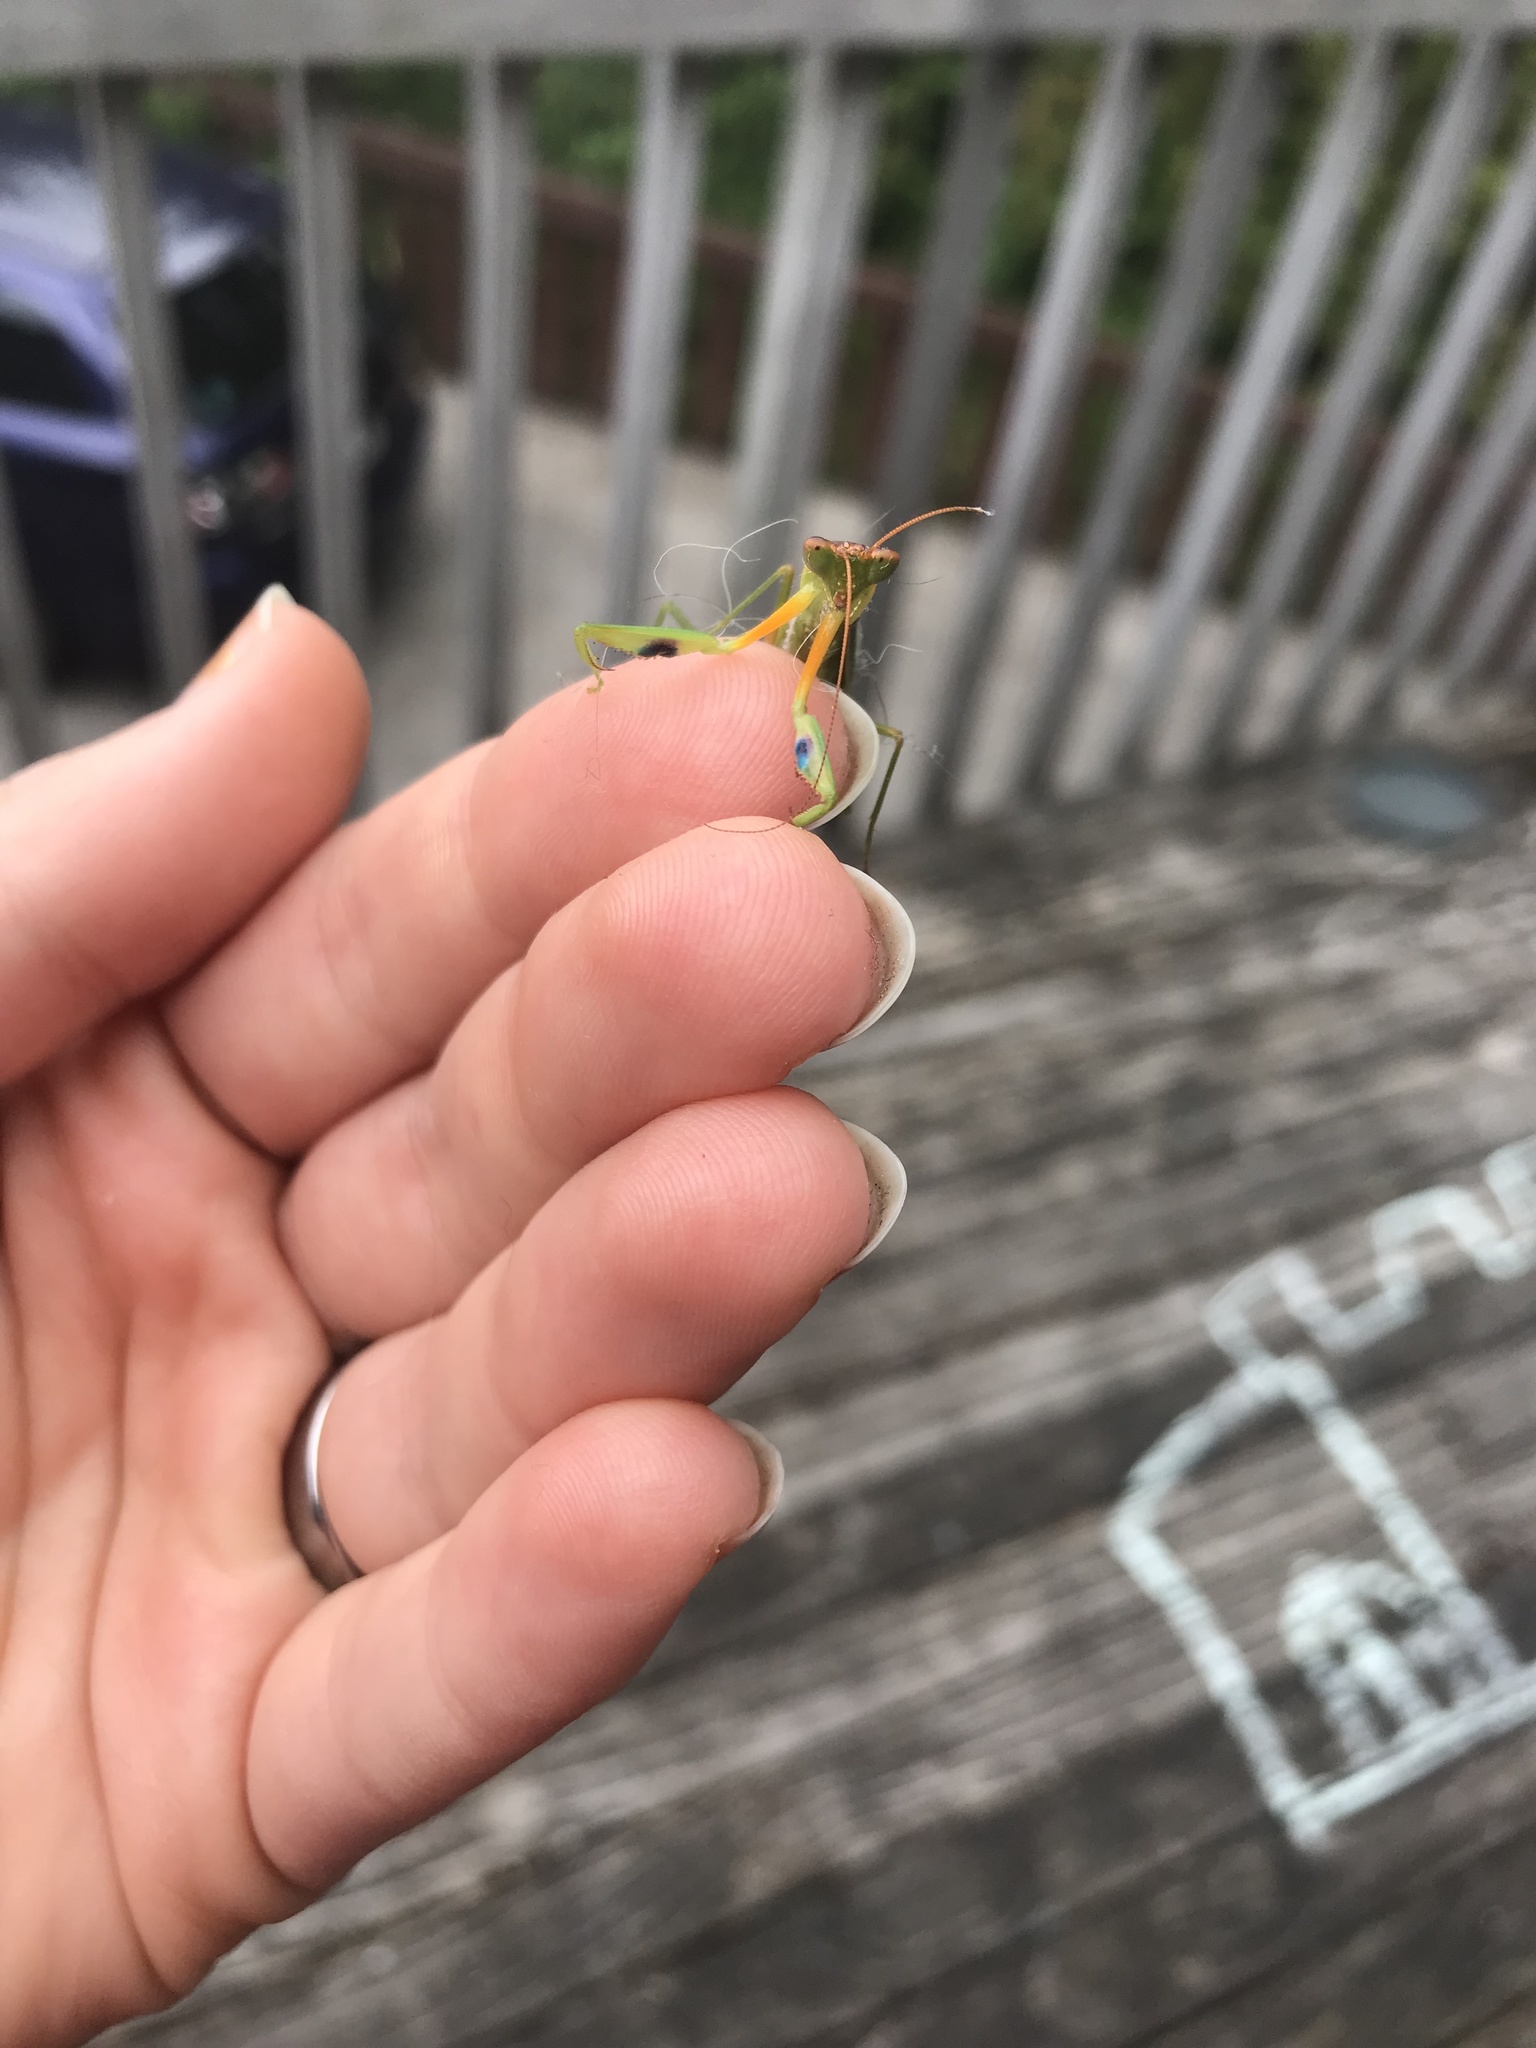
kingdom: Animalia
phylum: Arthropoda
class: Insecta
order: Mantodea
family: Mantidae
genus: Orthodera
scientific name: Orthodera novaezealandiae
